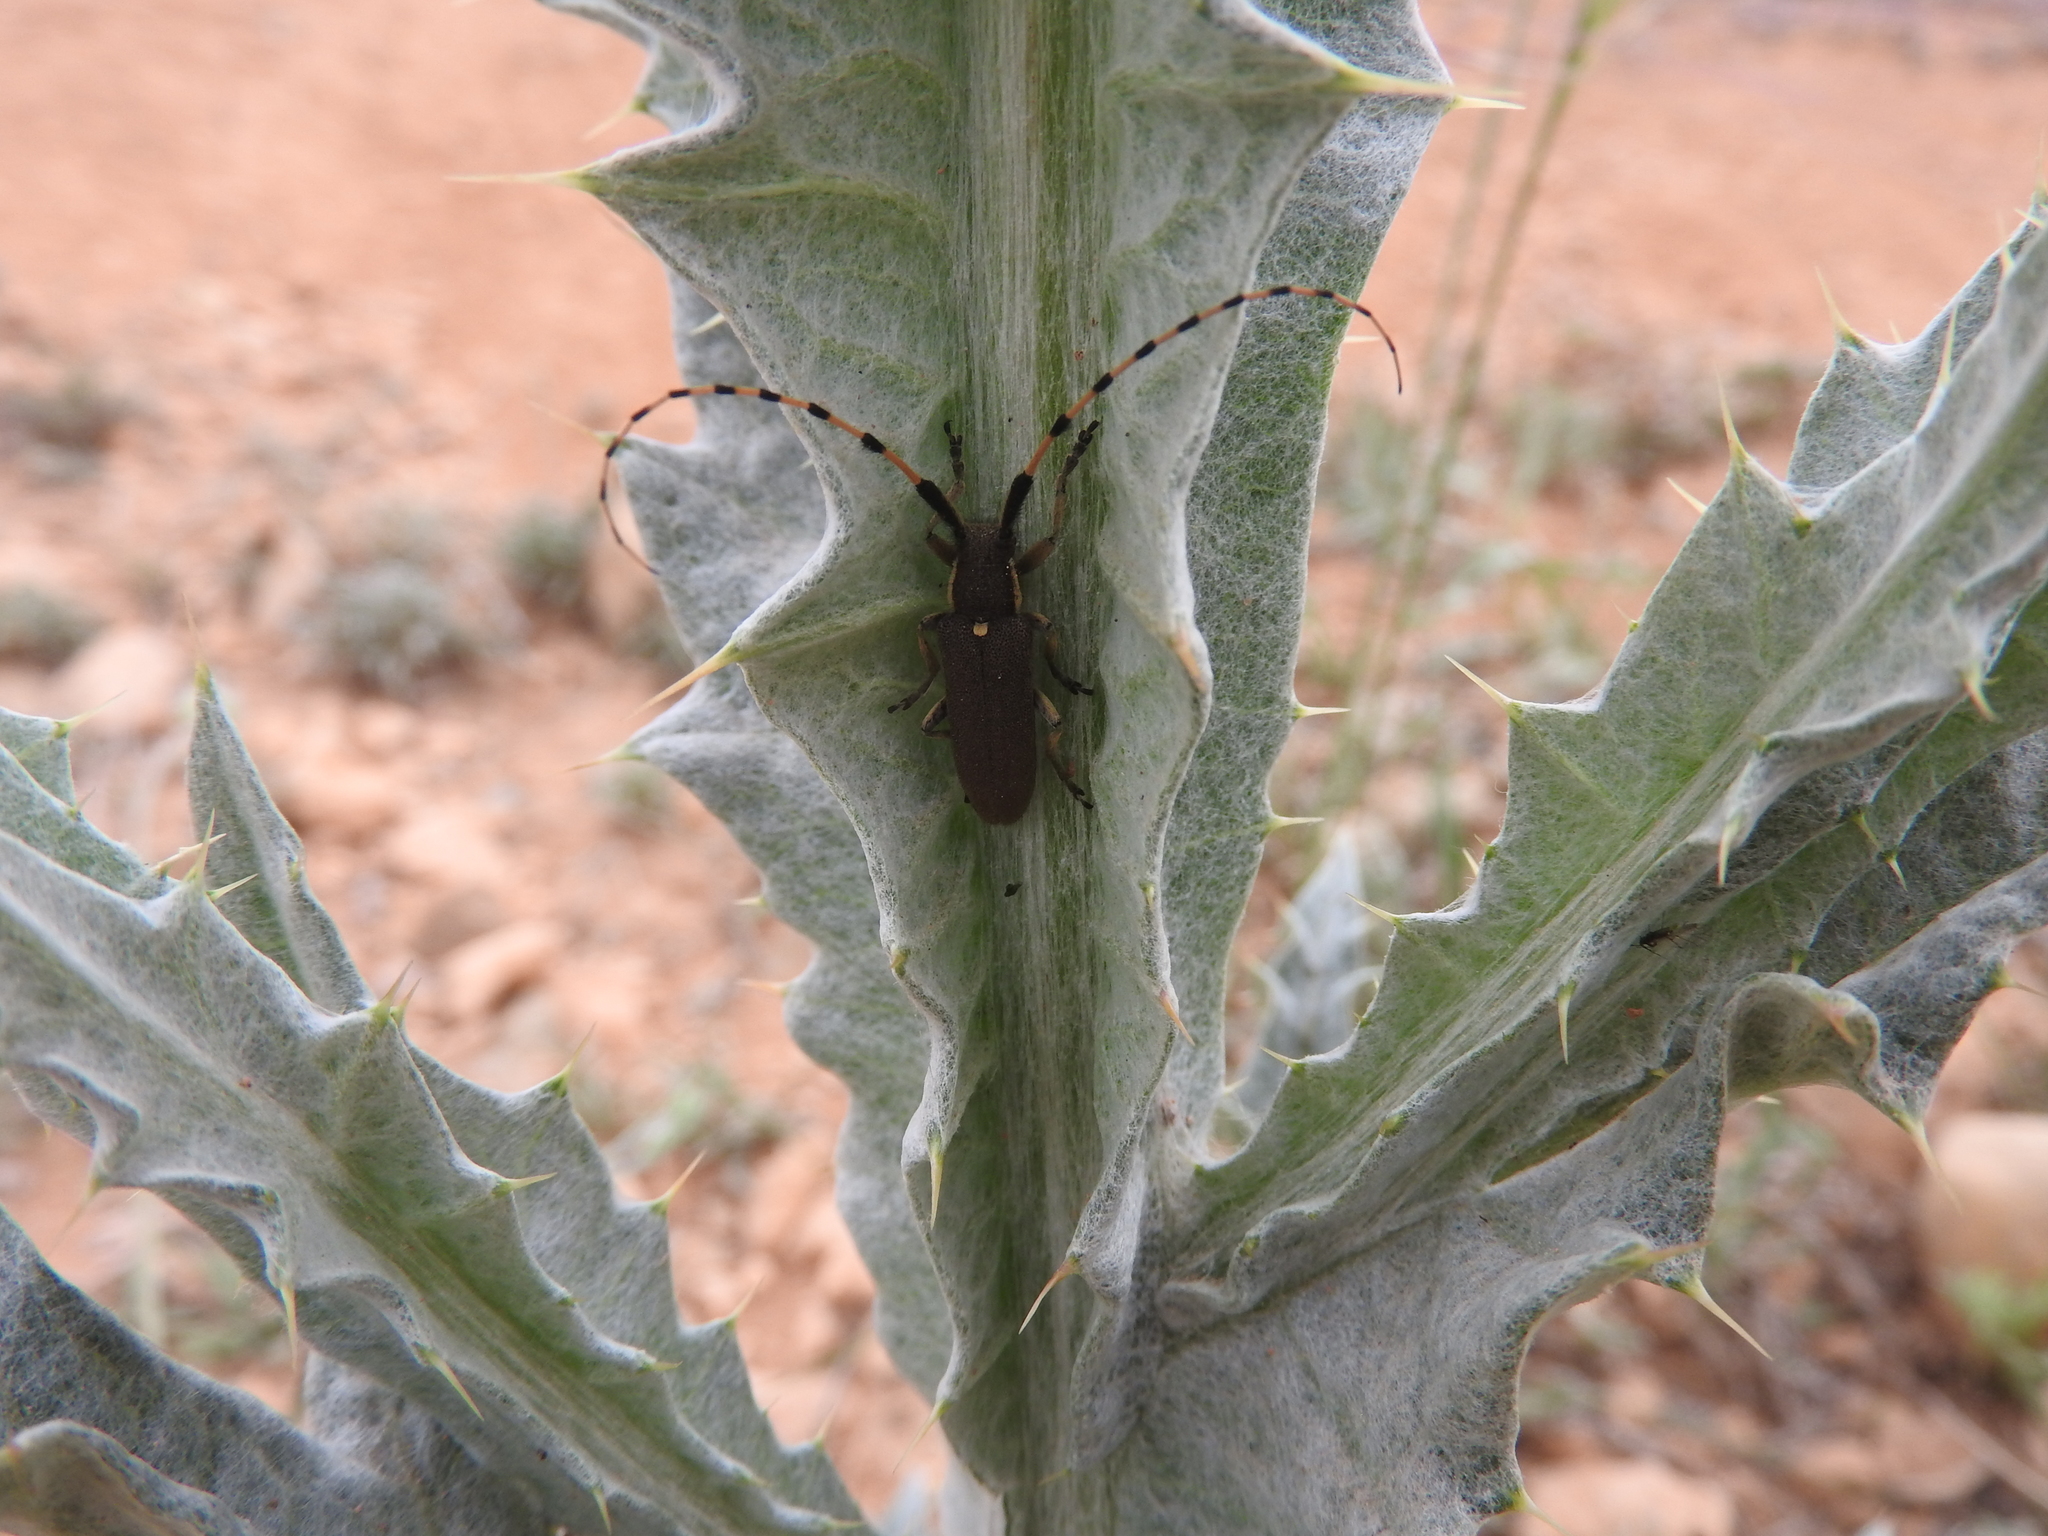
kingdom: Animalia
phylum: Arthropoda
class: Insecta
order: Coleoptera
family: Cerambycidae
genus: Agapanthia
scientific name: Agapanthia annularis
